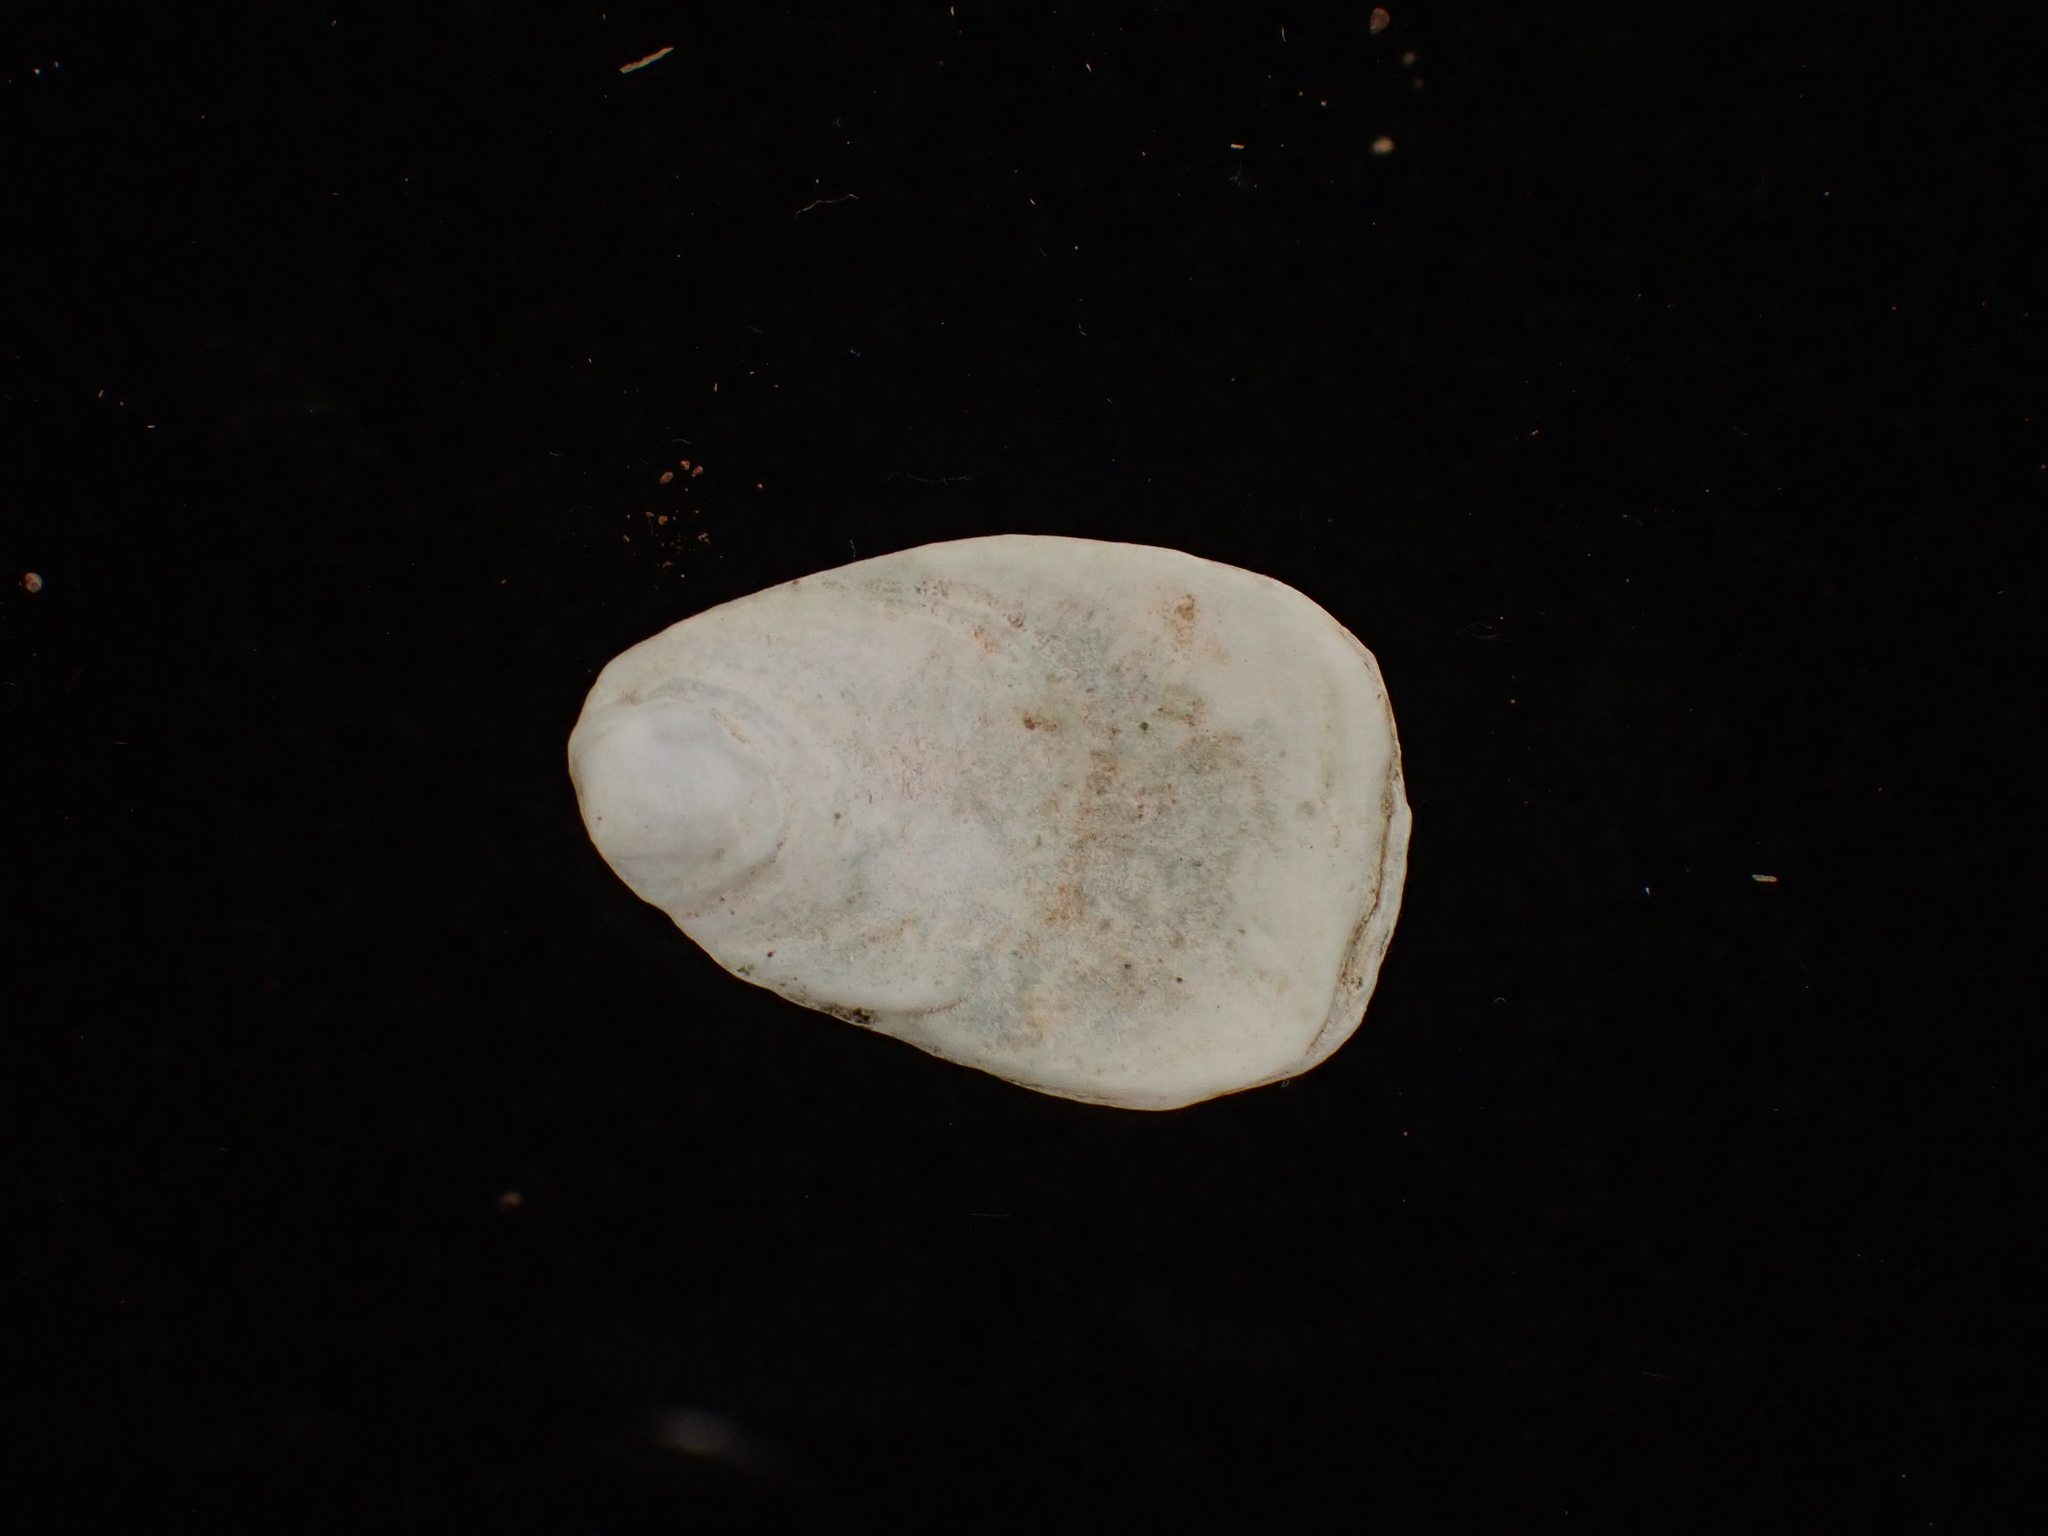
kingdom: Animalia
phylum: Mollusca
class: Gastropoda
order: Littorinimorpha
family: Calyptraeidae
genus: Crepidula
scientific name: Crepidula plana
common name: Eastern white slippersnail
